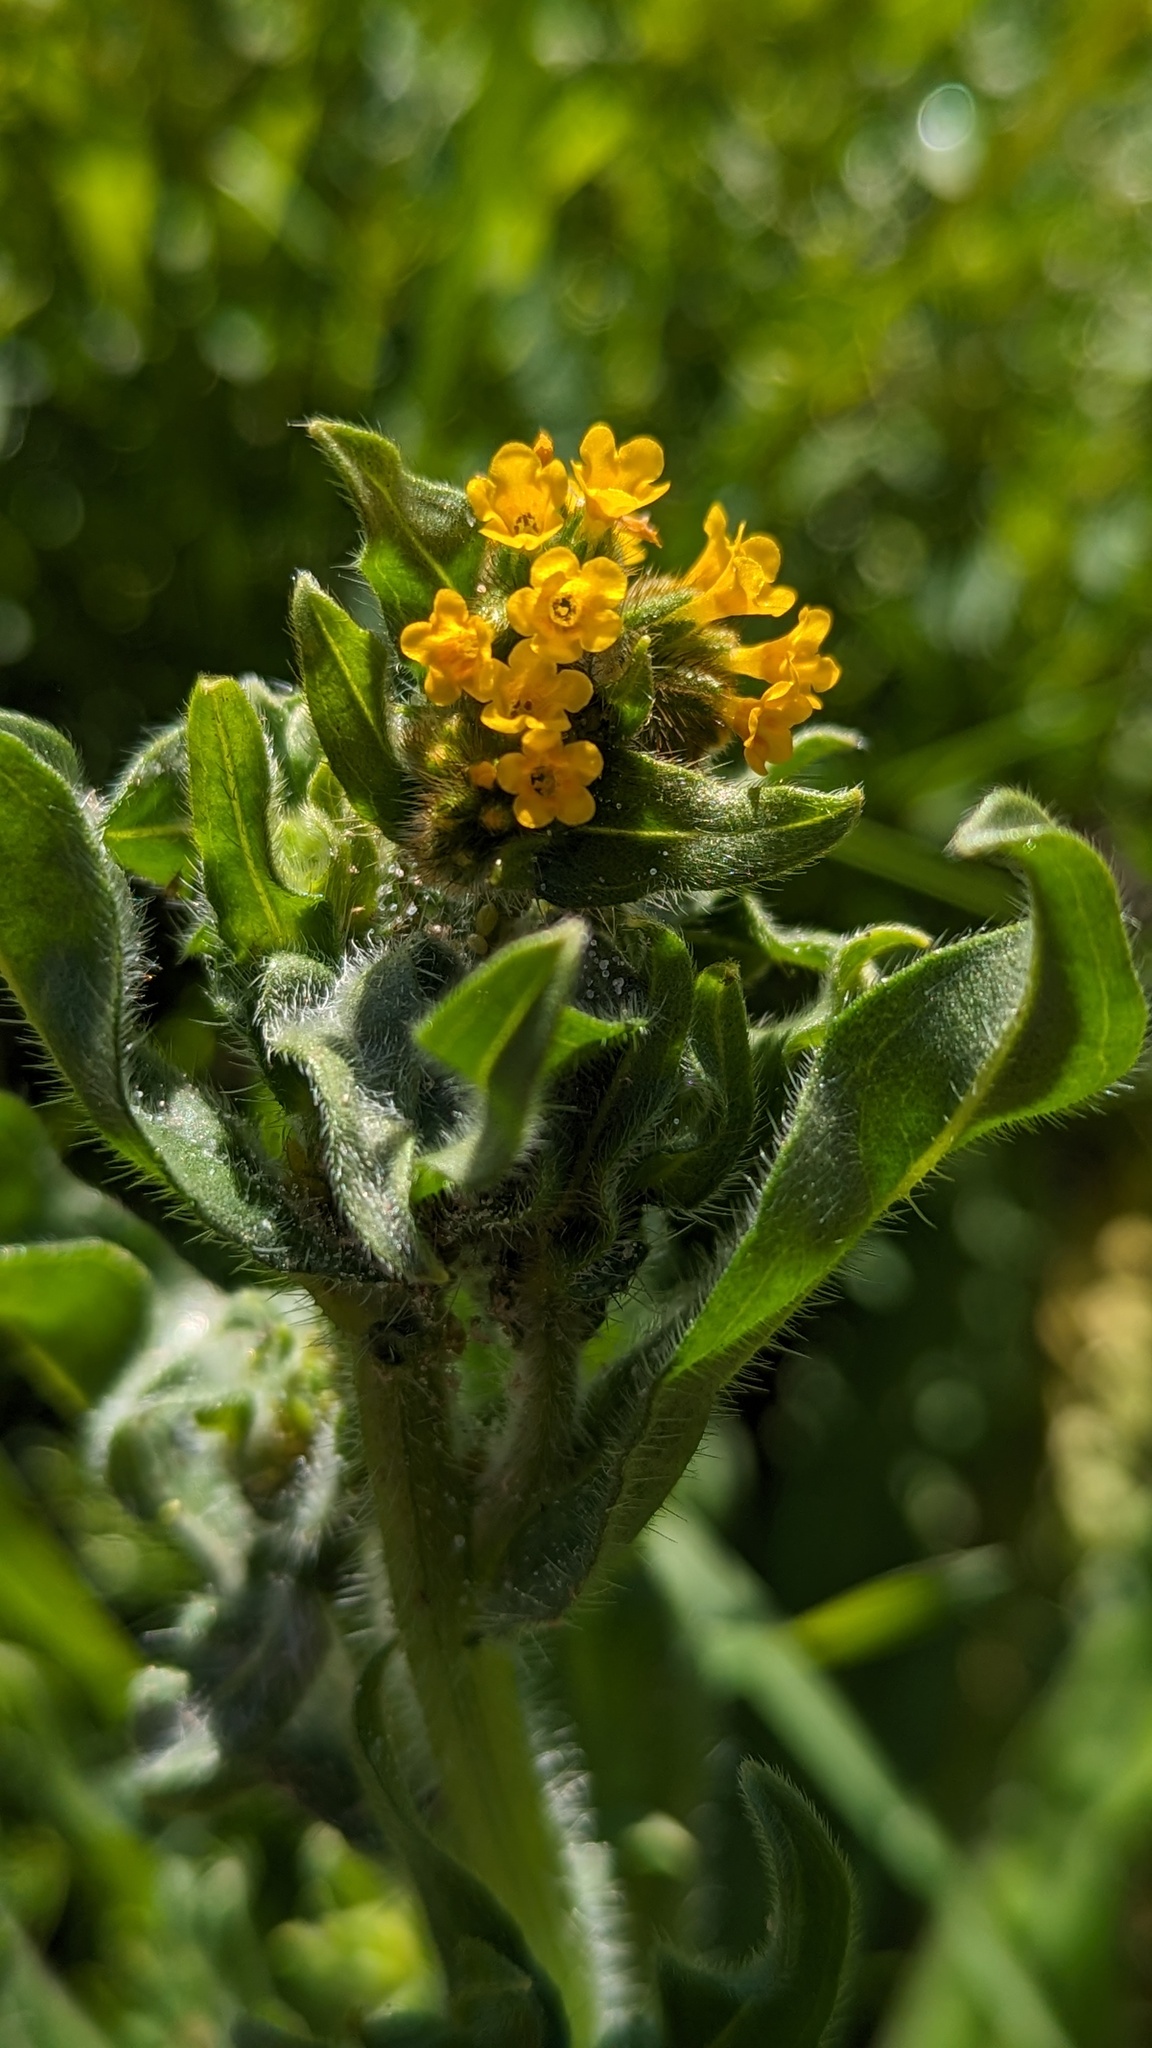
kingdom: Plantae
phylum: Tracheophyta
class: Magnoliopsida
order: Boraginales
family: Boraginaceae
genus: Amsinckia
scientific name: Amsinckia menziesii
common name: Menzies' fiddleneck
